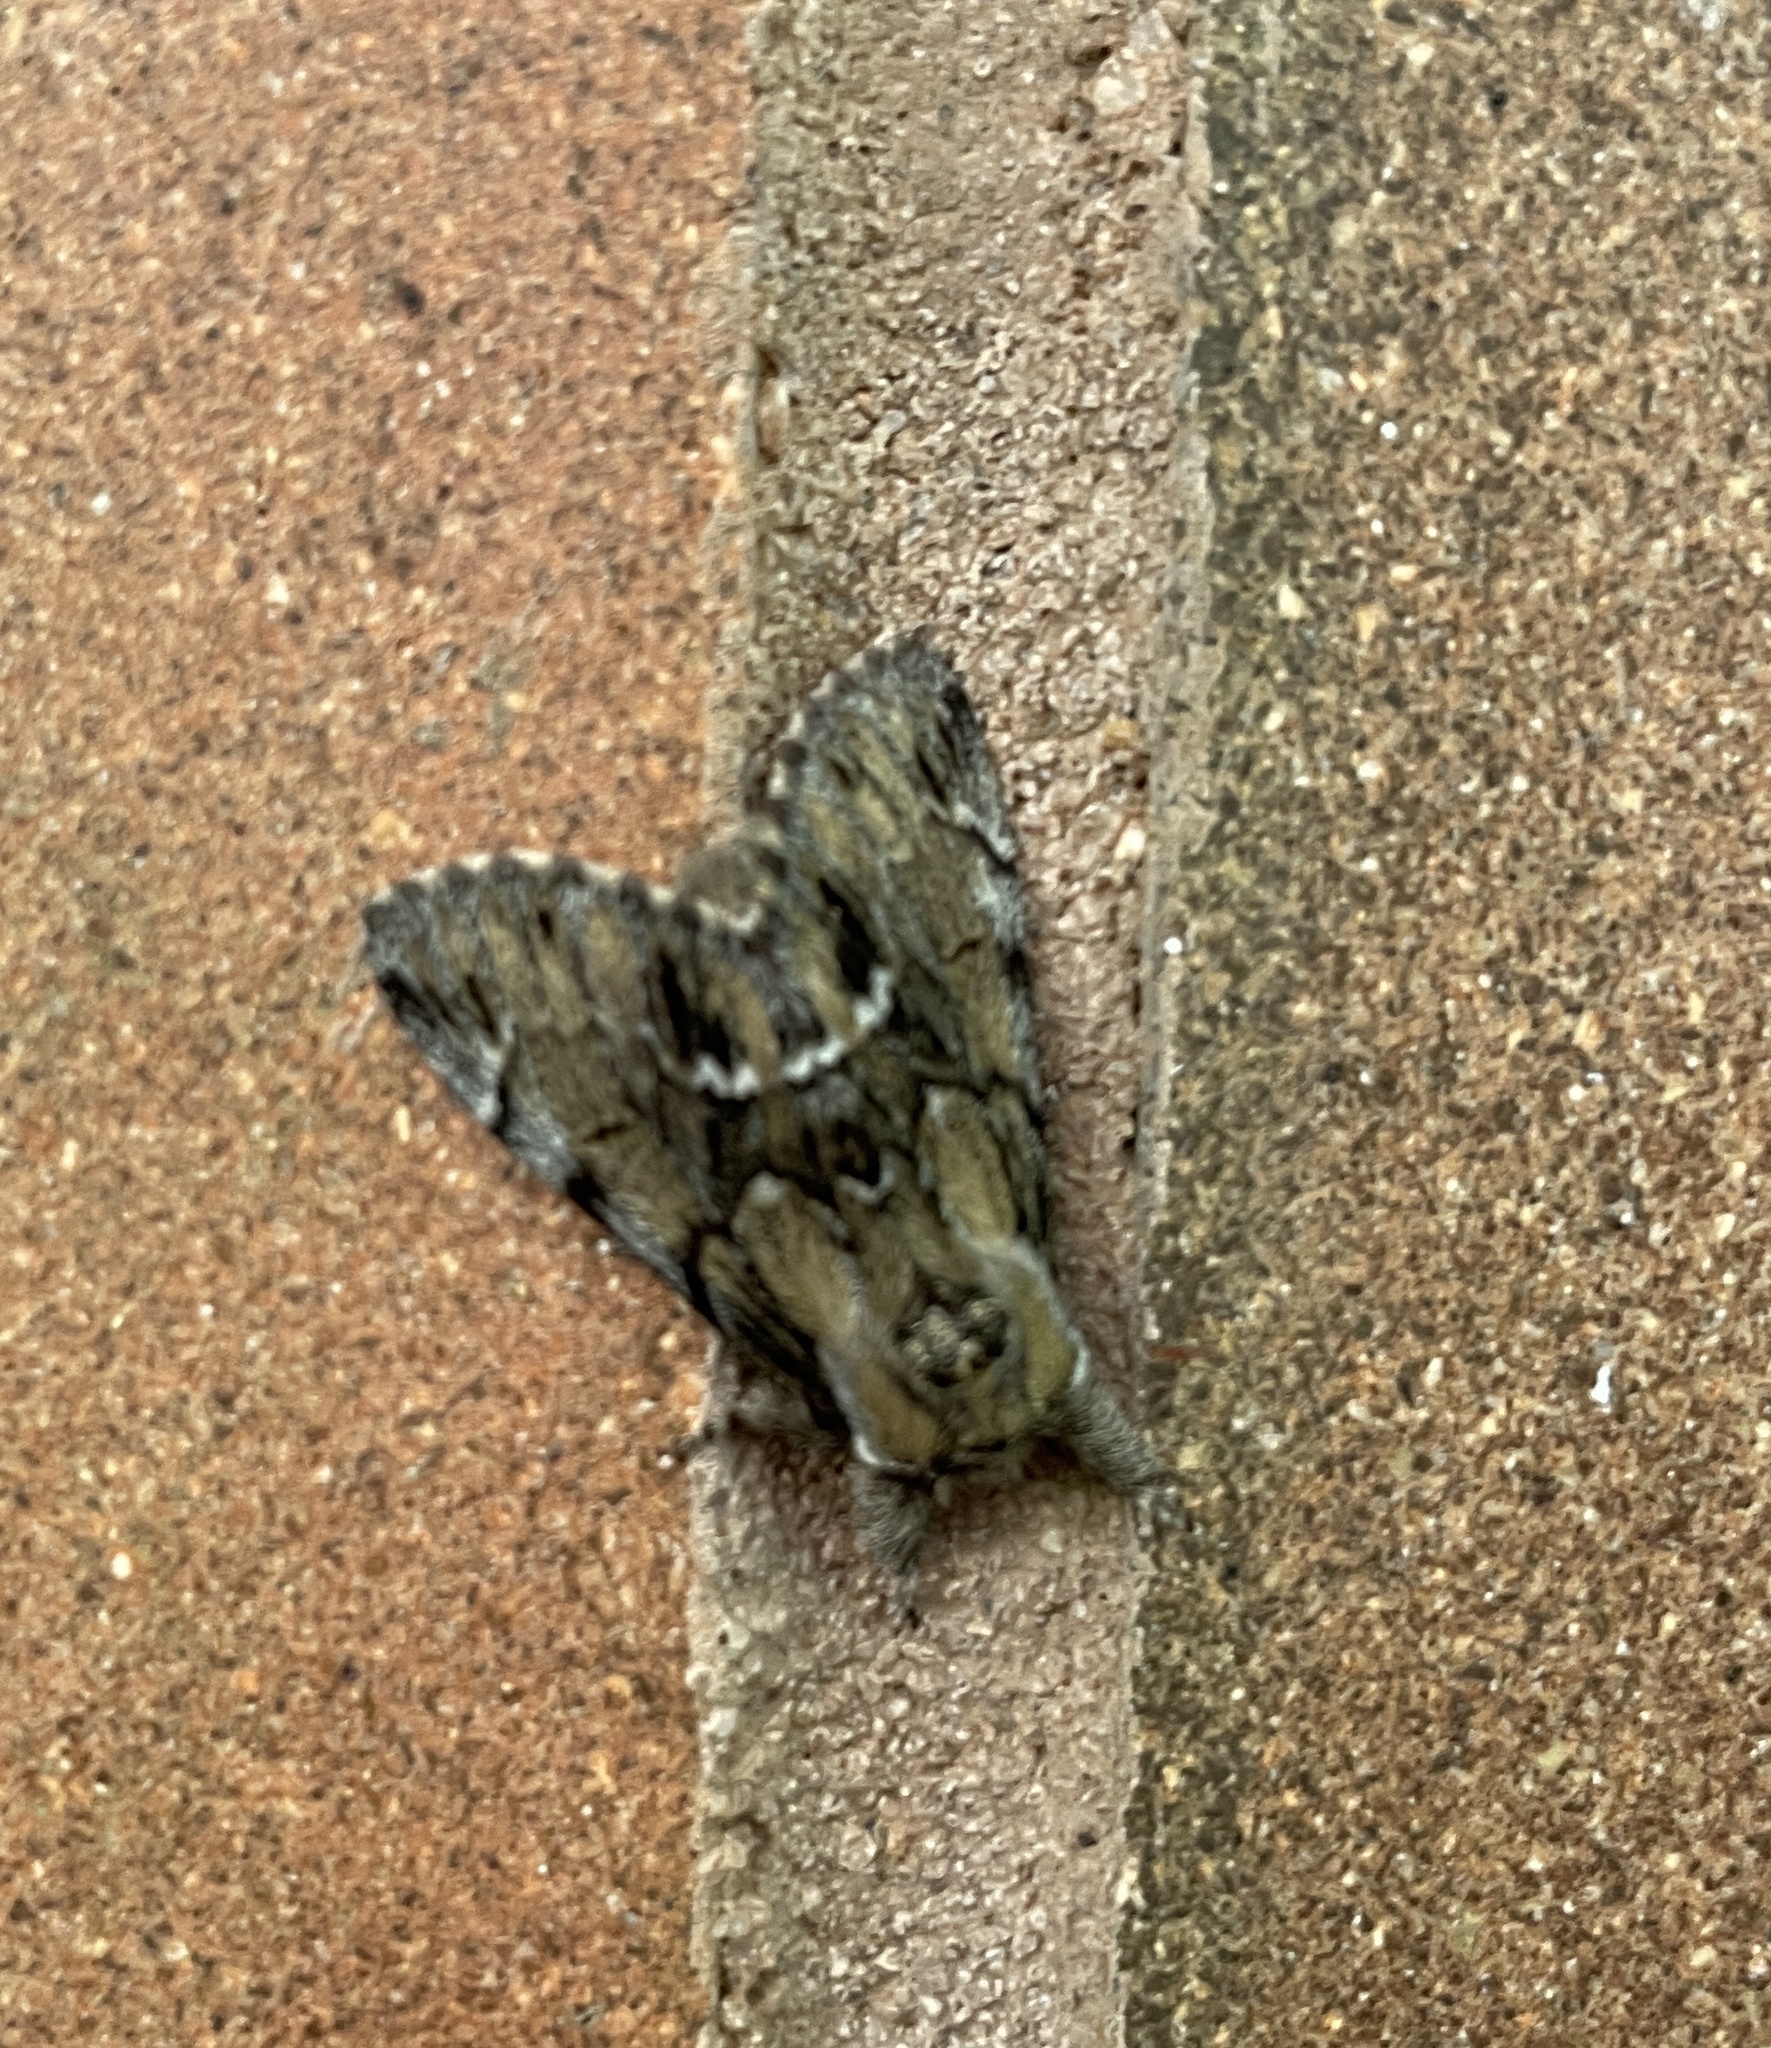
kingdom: Animalia
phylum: Arthropoda
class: Insecta
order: Lepidoptera
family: Notodontidae
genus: Paraeschra
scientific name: Paraeschra georgica
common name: Georgian prominent
